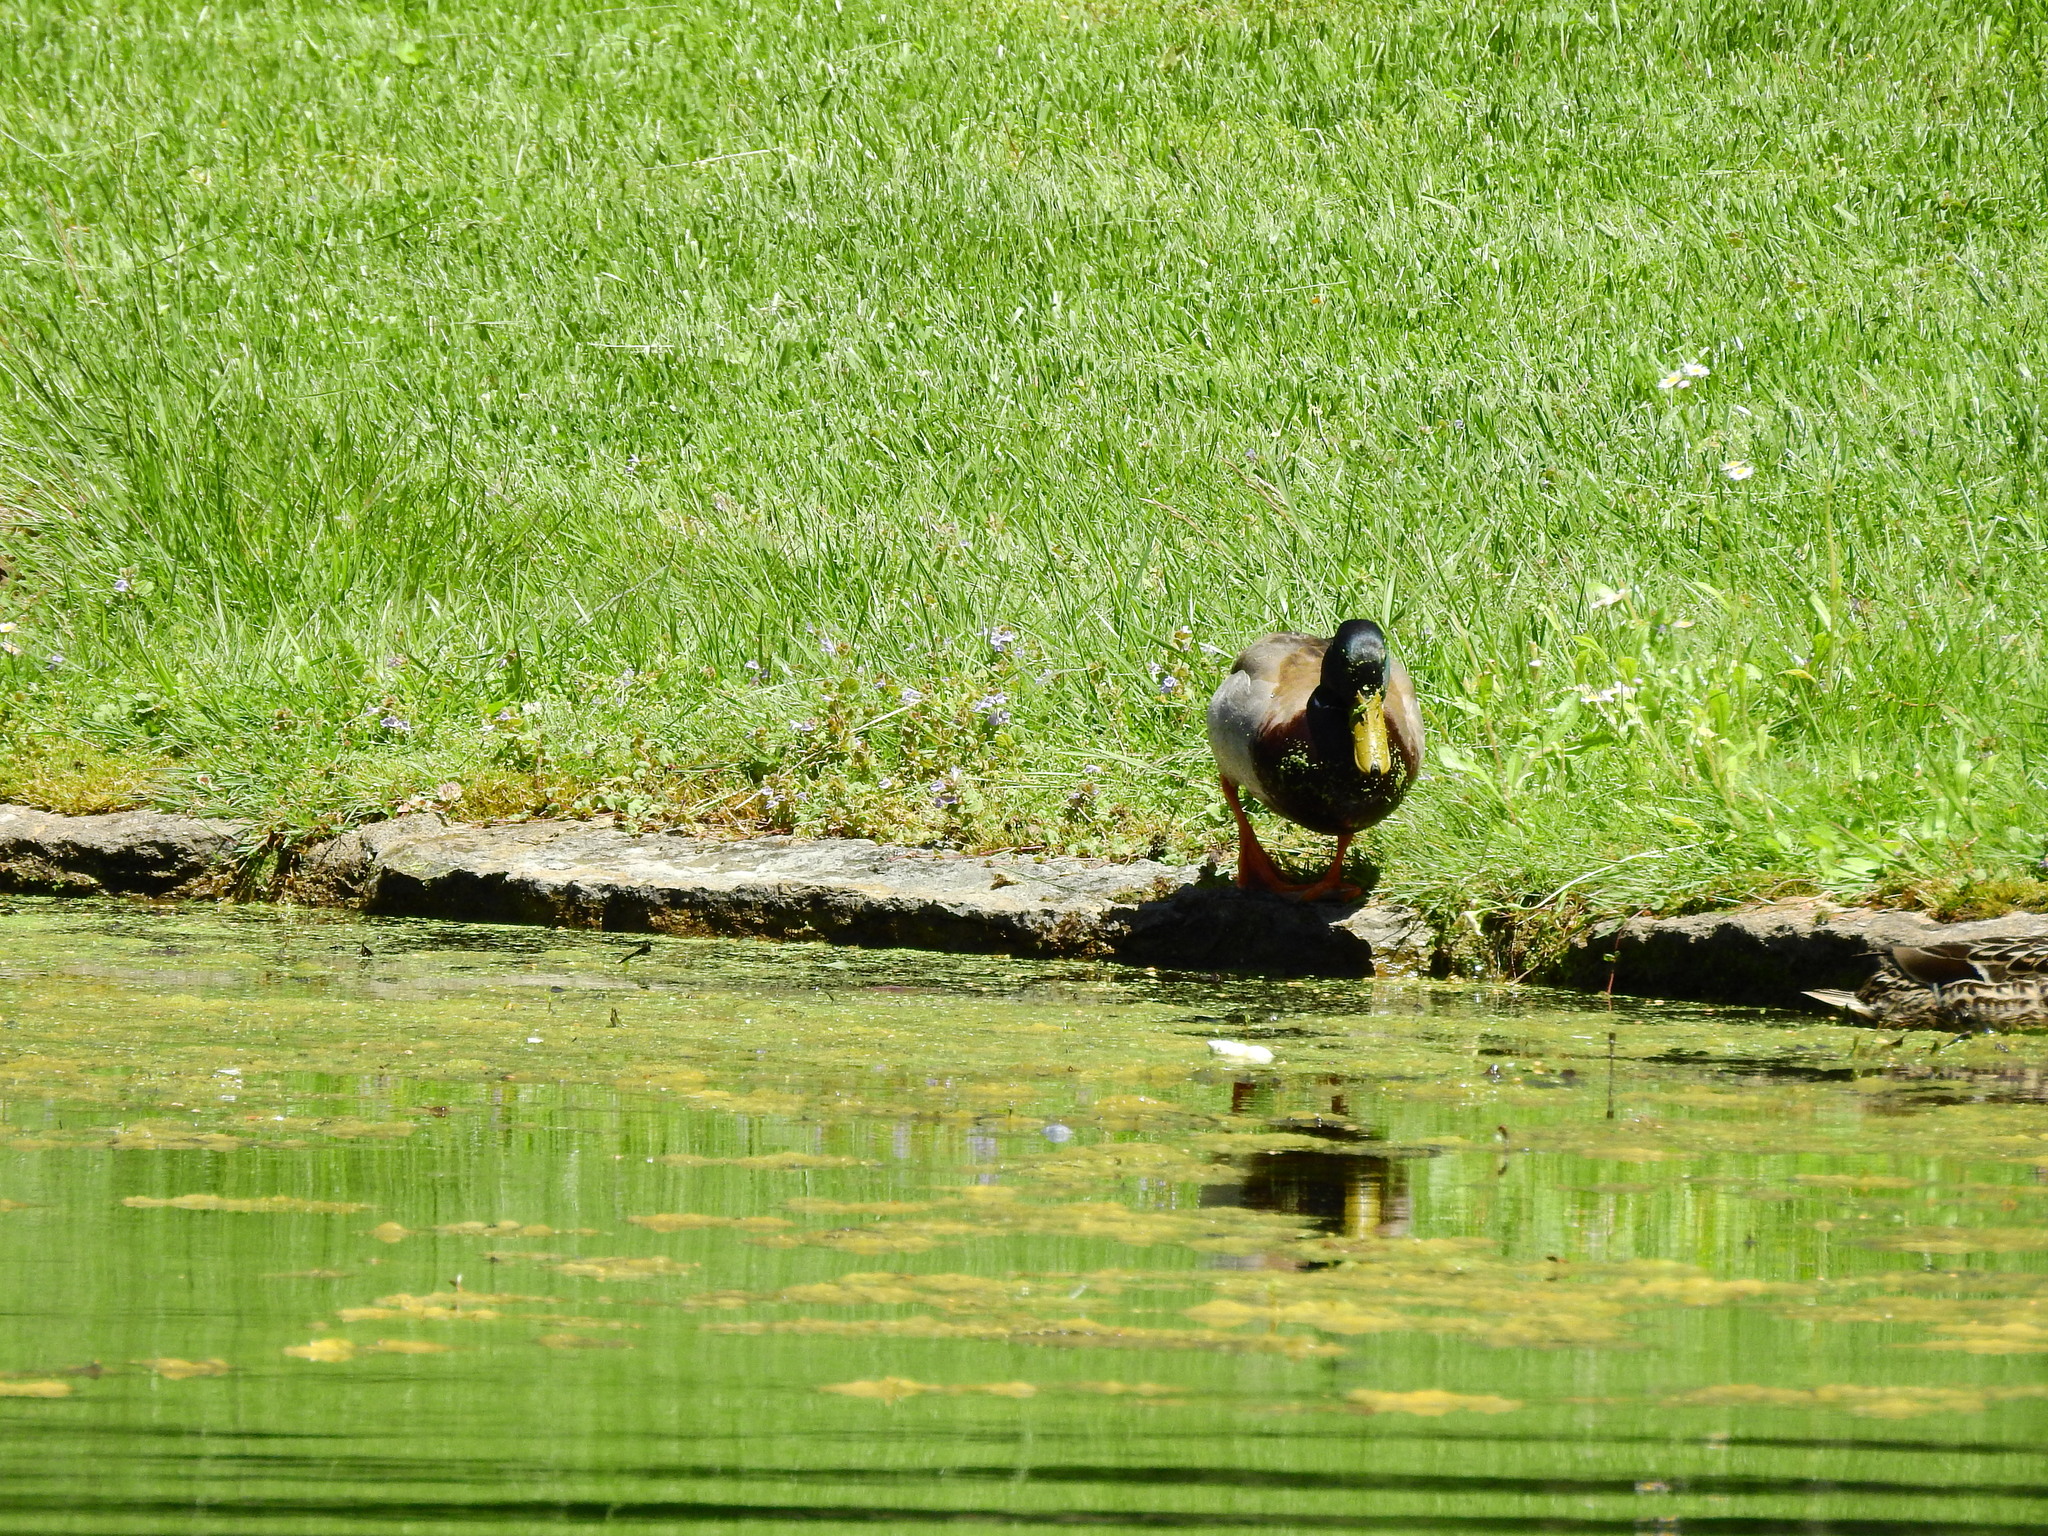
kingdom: Animalia
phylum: Chordata
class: Aves
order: Anseriformes
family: Anatidae
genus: Anas
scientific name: Anas platyrhynchos
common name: Mallard
